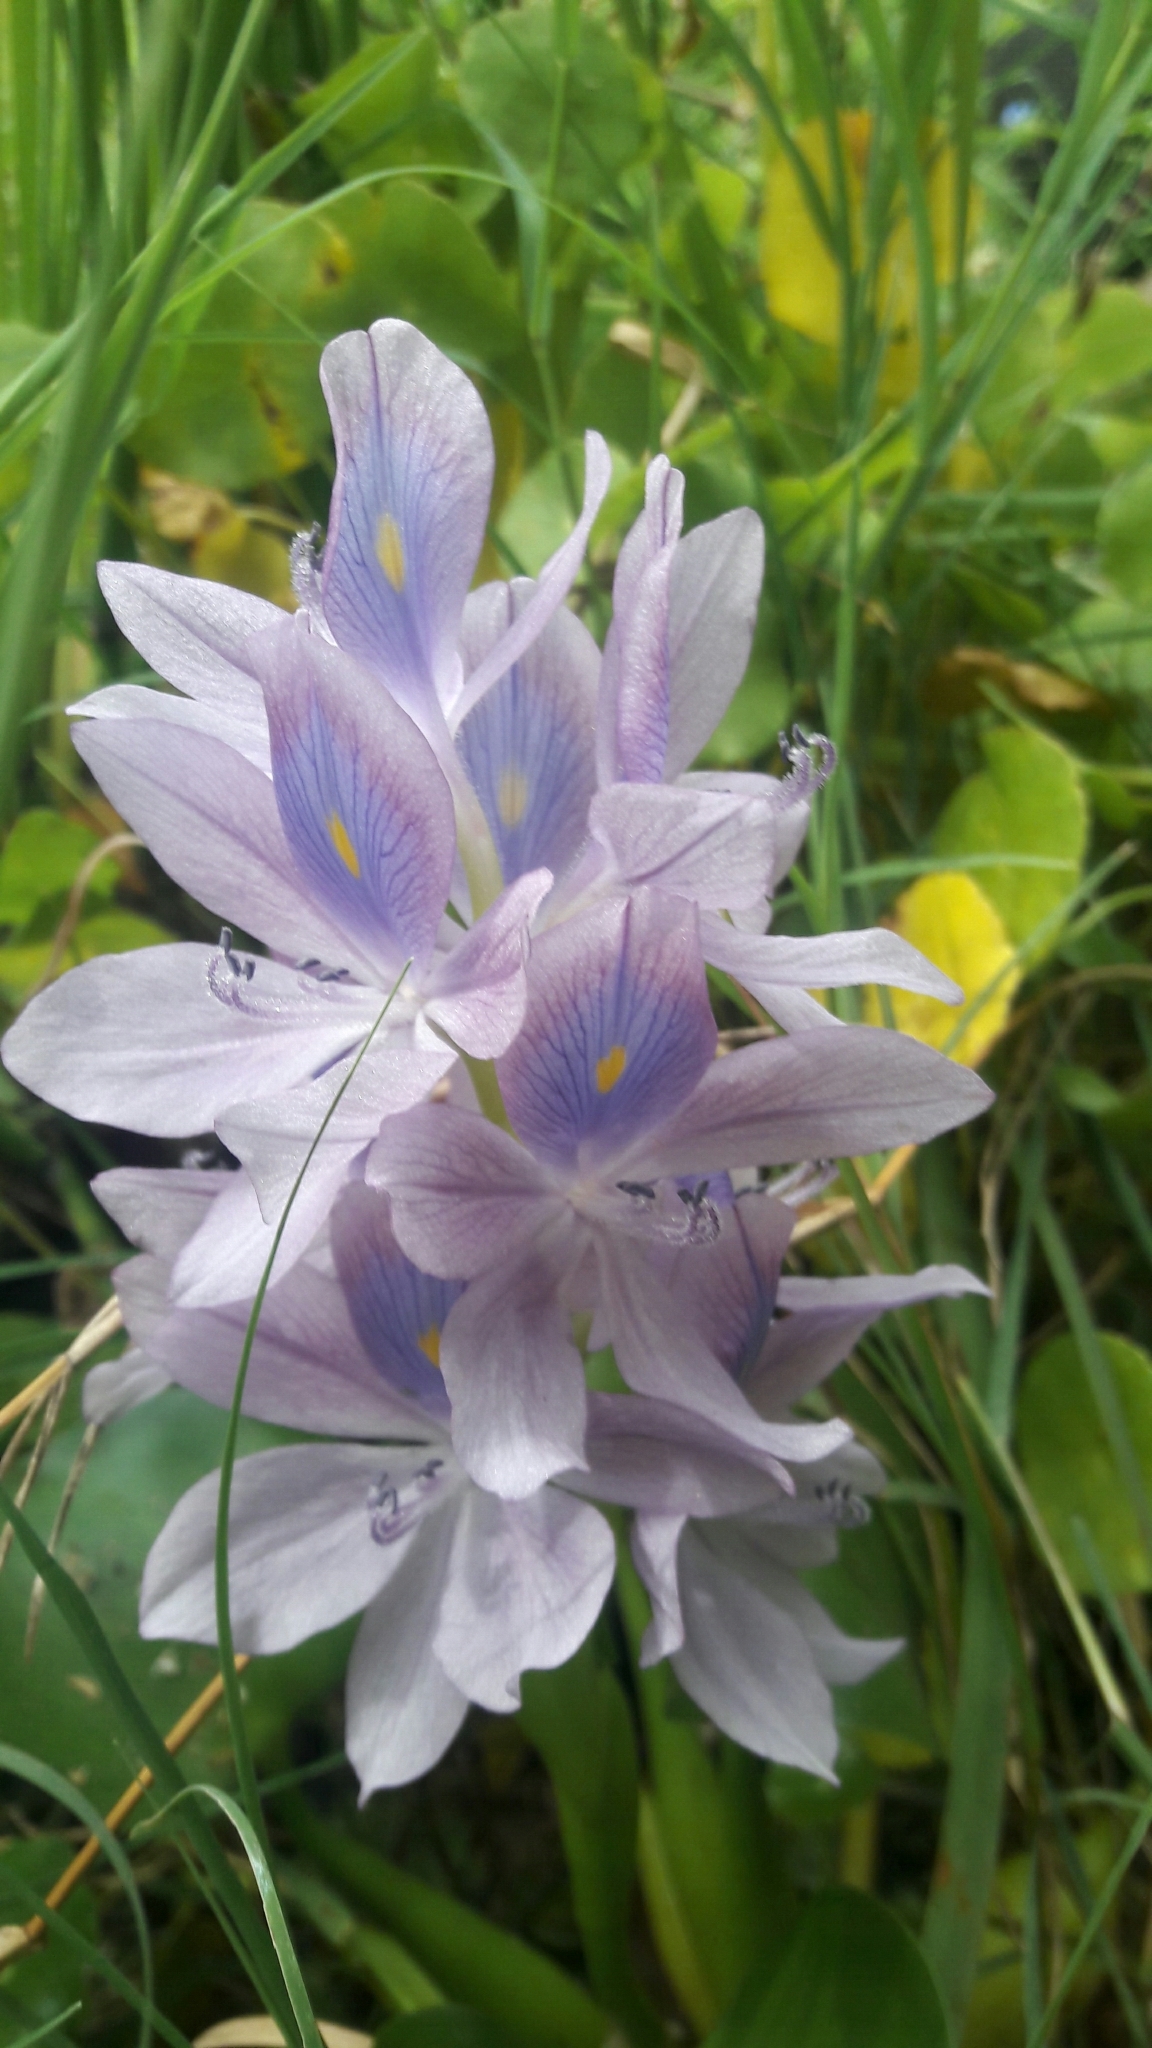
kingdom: Plantae
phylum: Tracheophyta
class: Liliopsida
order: Commelinales
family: Pontederiaceae
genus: Pontederia
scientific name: Pontederia crassipes
